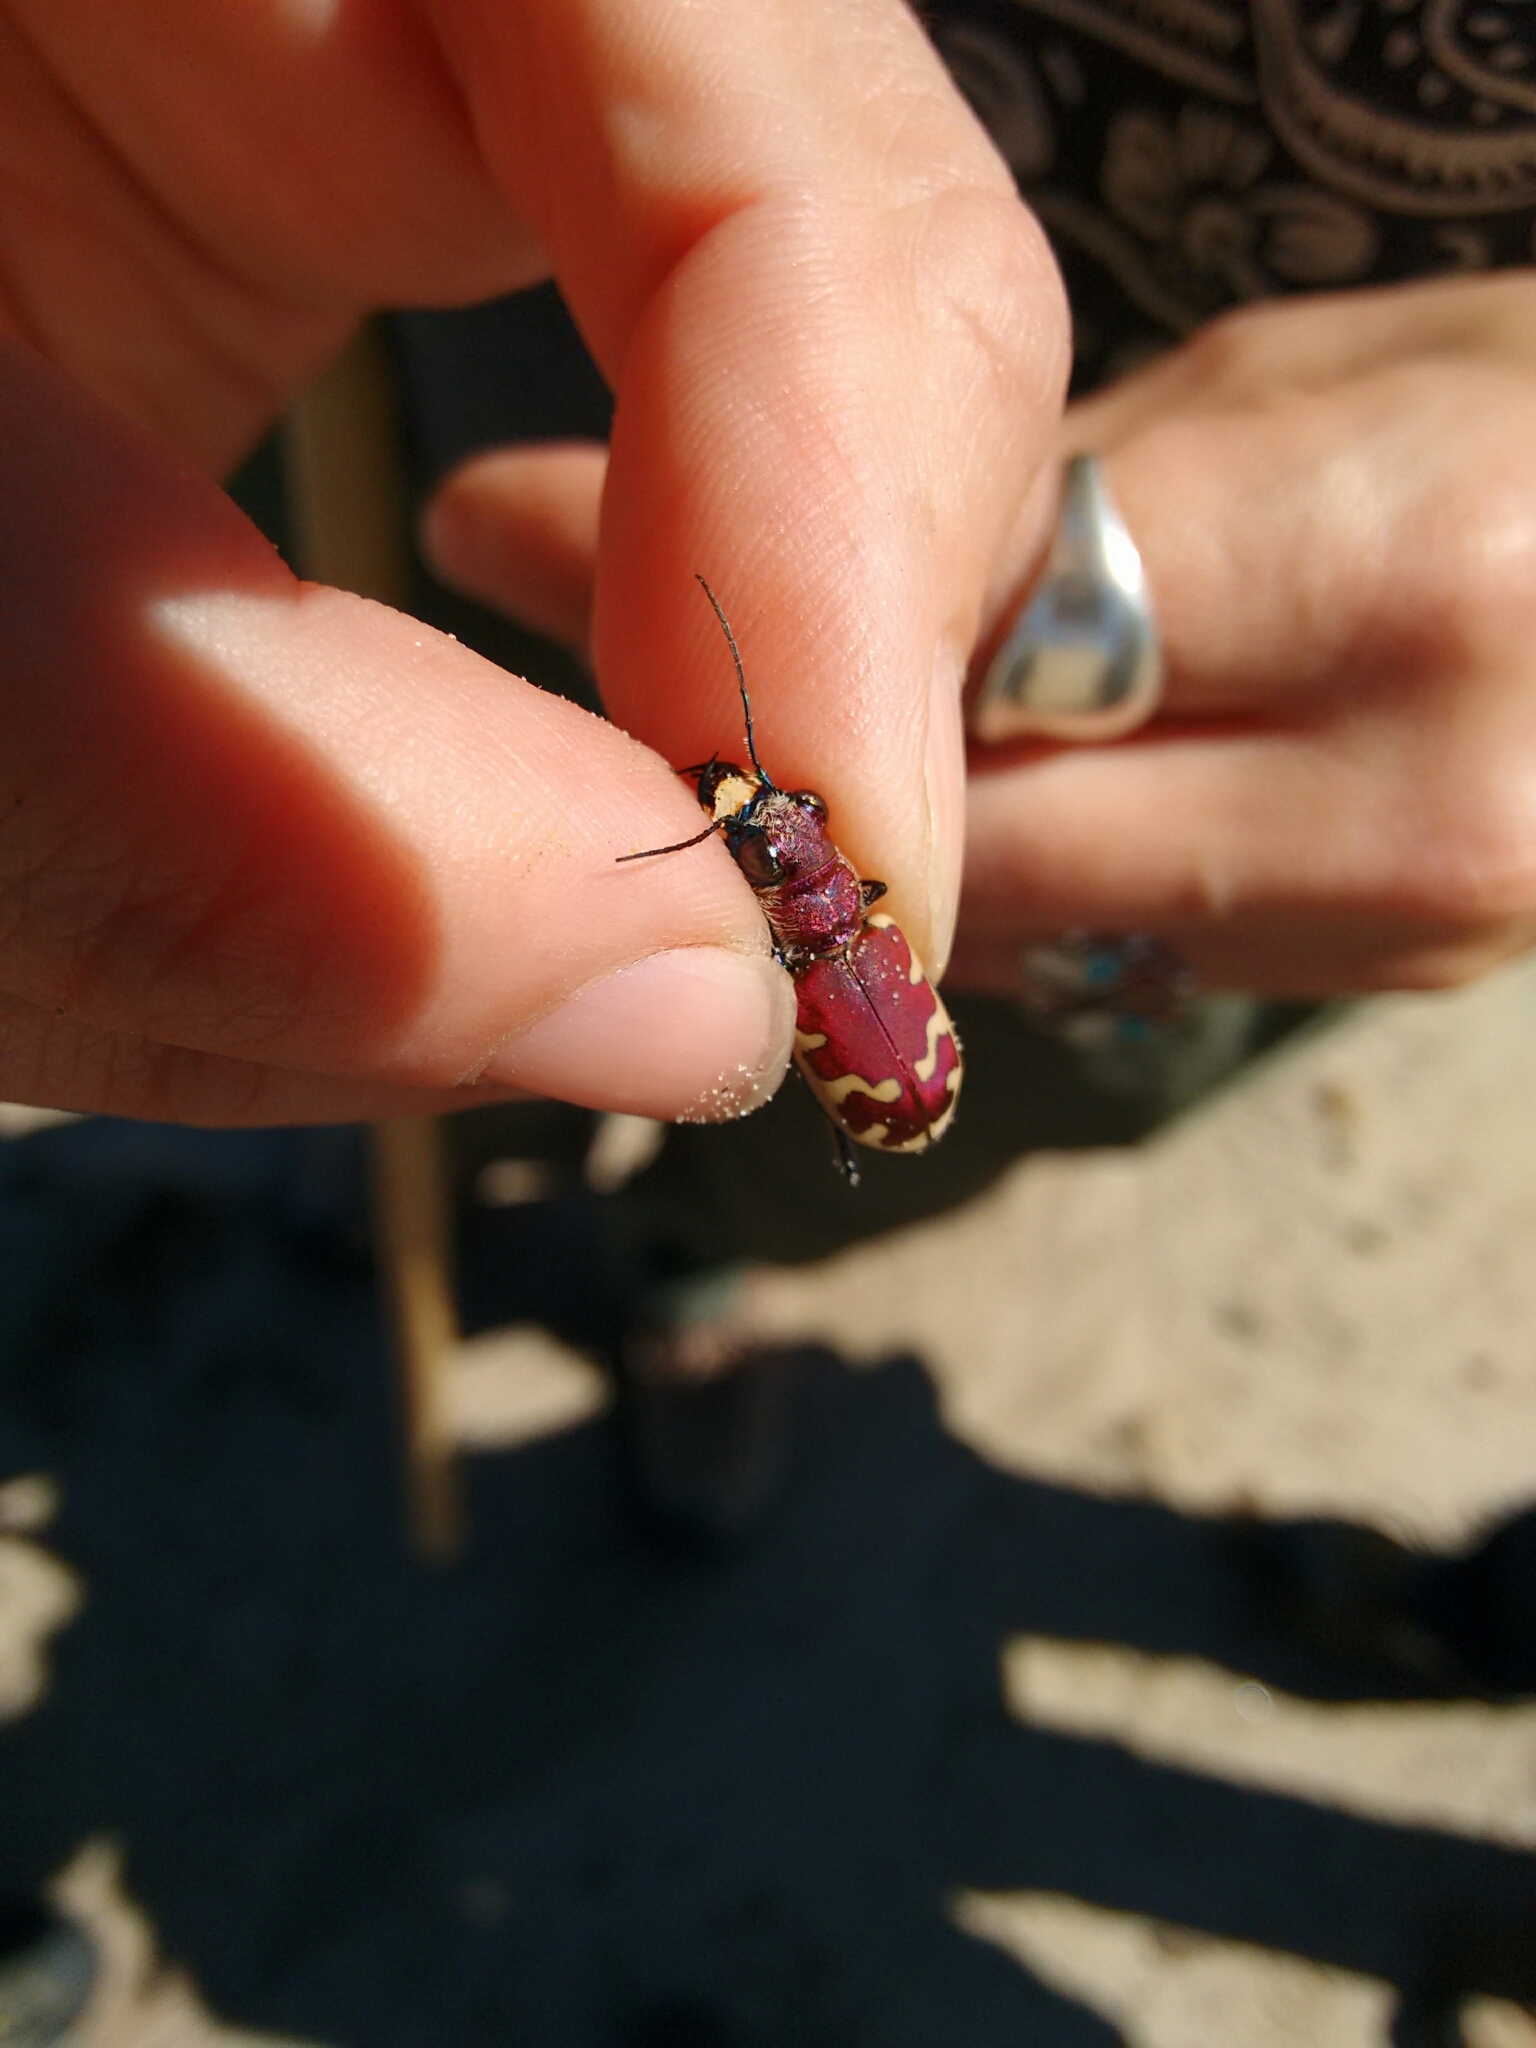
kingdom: Animalia
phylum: Arthropoda
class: Insecta
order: Coleoptera
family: Carabidae
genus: Cicindela
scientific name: Cicindela formosa
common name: Big sand tiger beetle
